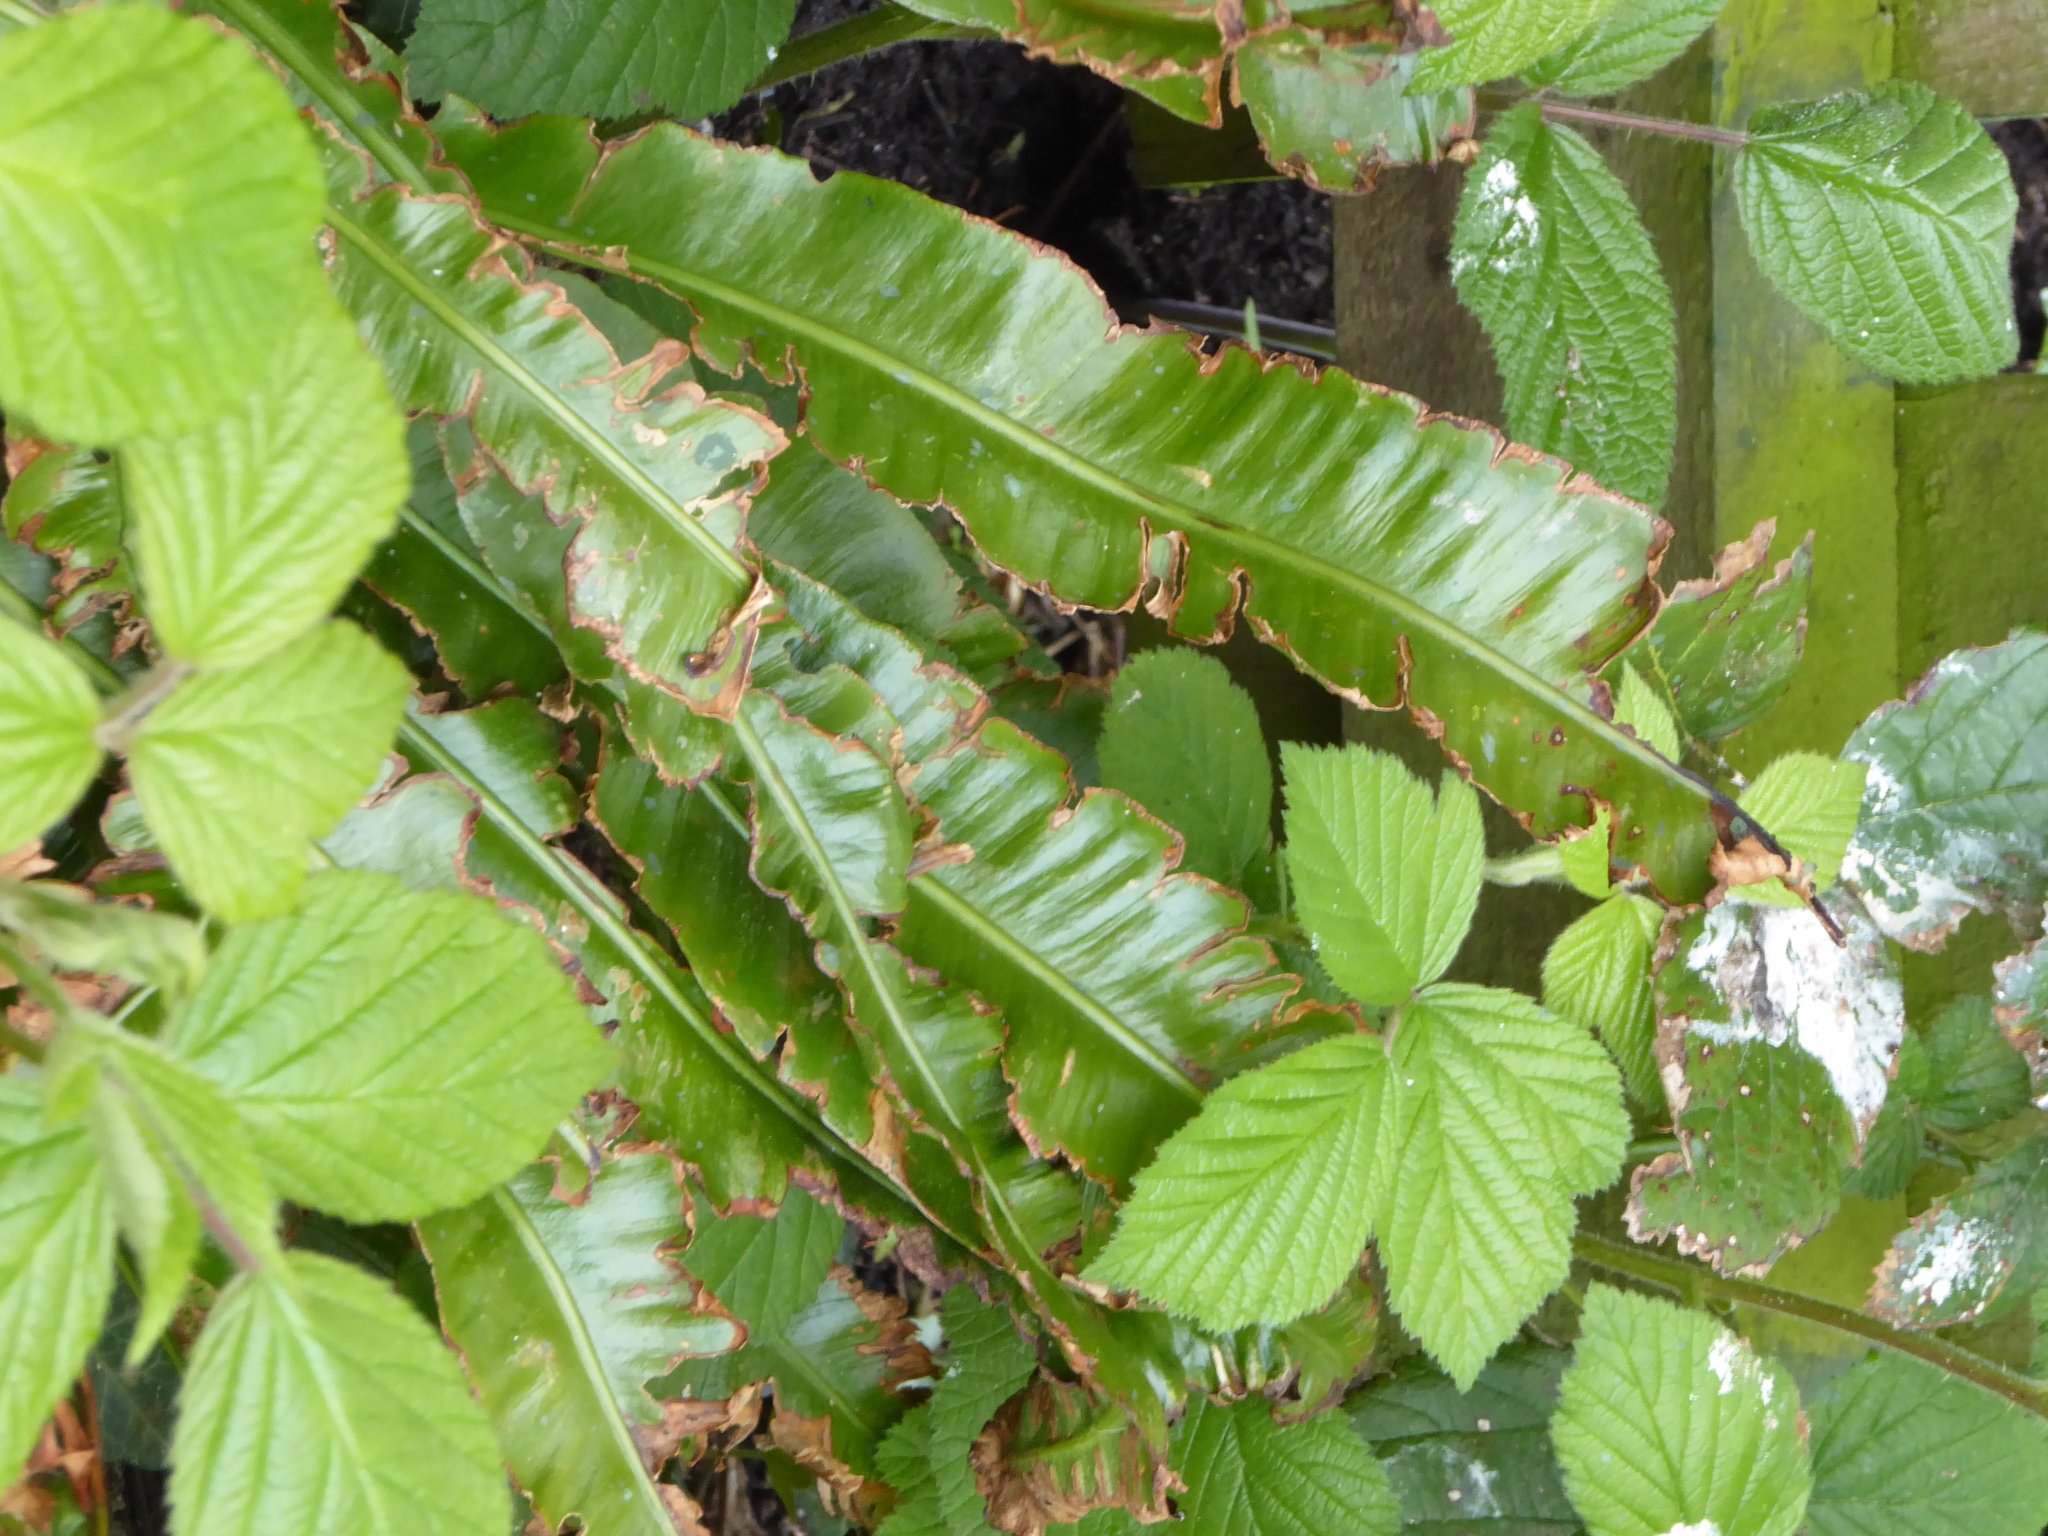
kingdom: Plantae
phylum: Tracheophyta
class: Polypodiopsida
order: Polypodiales
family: Aspleniaceae
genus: Asplenium
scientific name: Asplenium scolopendrium
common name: Hart's-tongue fern
